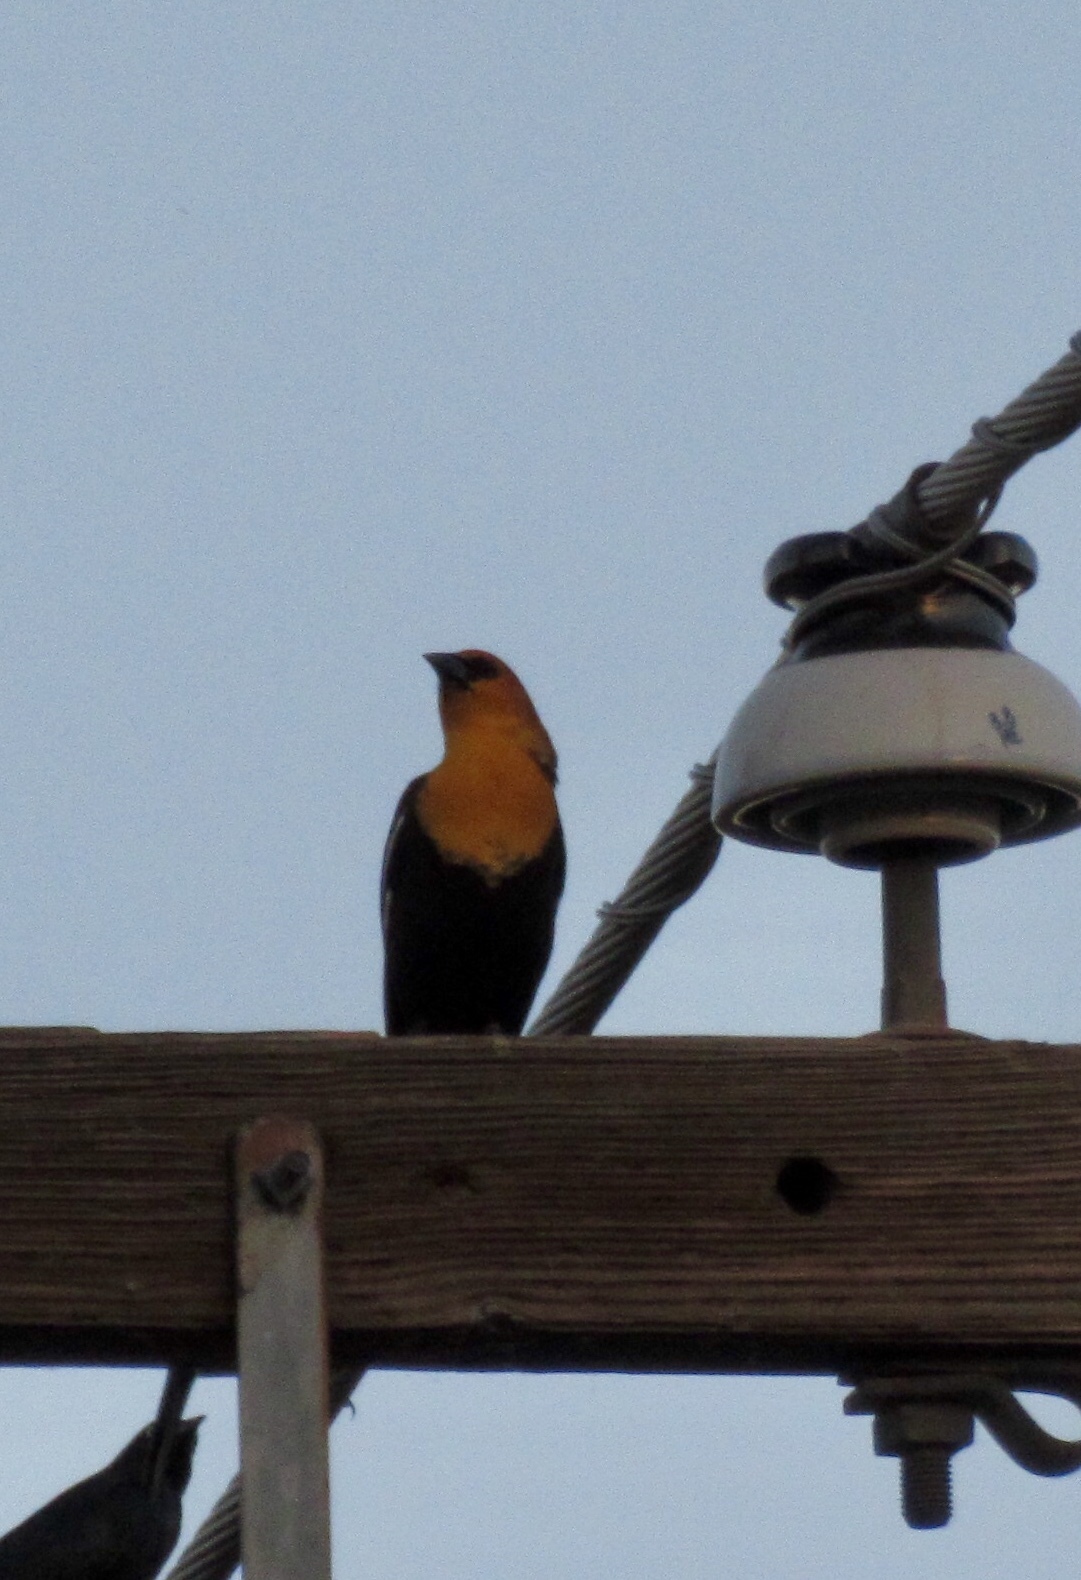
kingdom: Animalia
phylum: Chordata
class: Aves
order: Passeriformes
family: Icteridae
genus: Xanthocephalus
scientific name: Xanthocephalus xanthocephalus
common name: Yellow-headed blackbird
